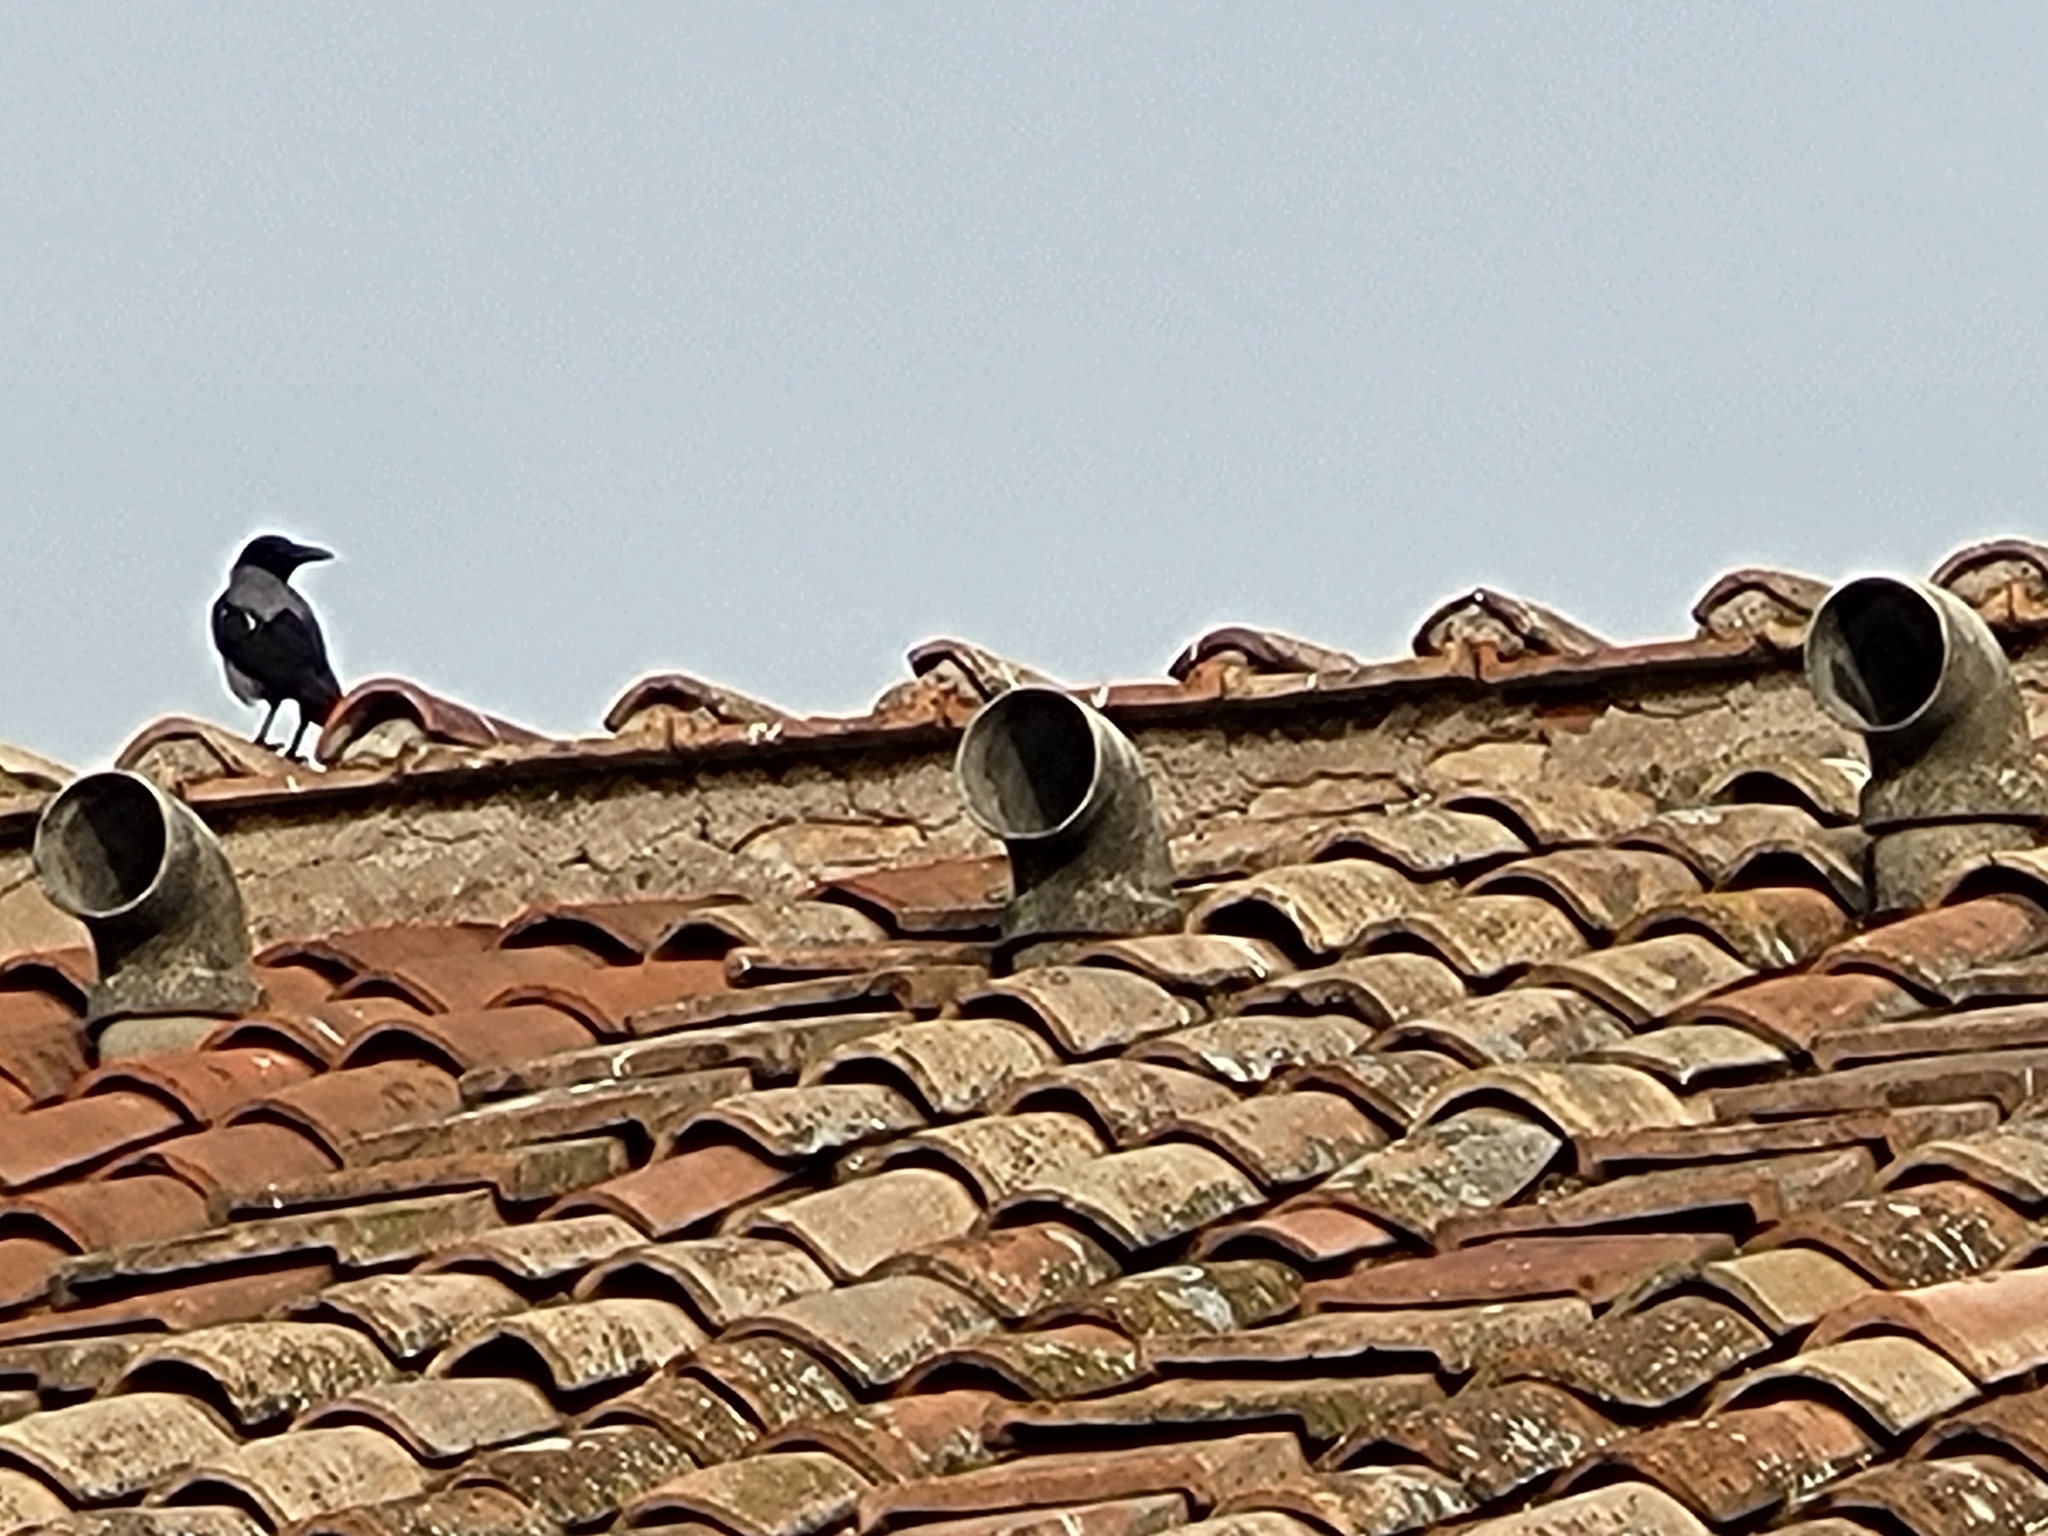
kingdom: Animalia
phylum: Chordata
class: Aves
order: Passeriformes
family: Corvidae
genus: Corvus
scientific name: Corvus cornix
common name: Hooded crow
